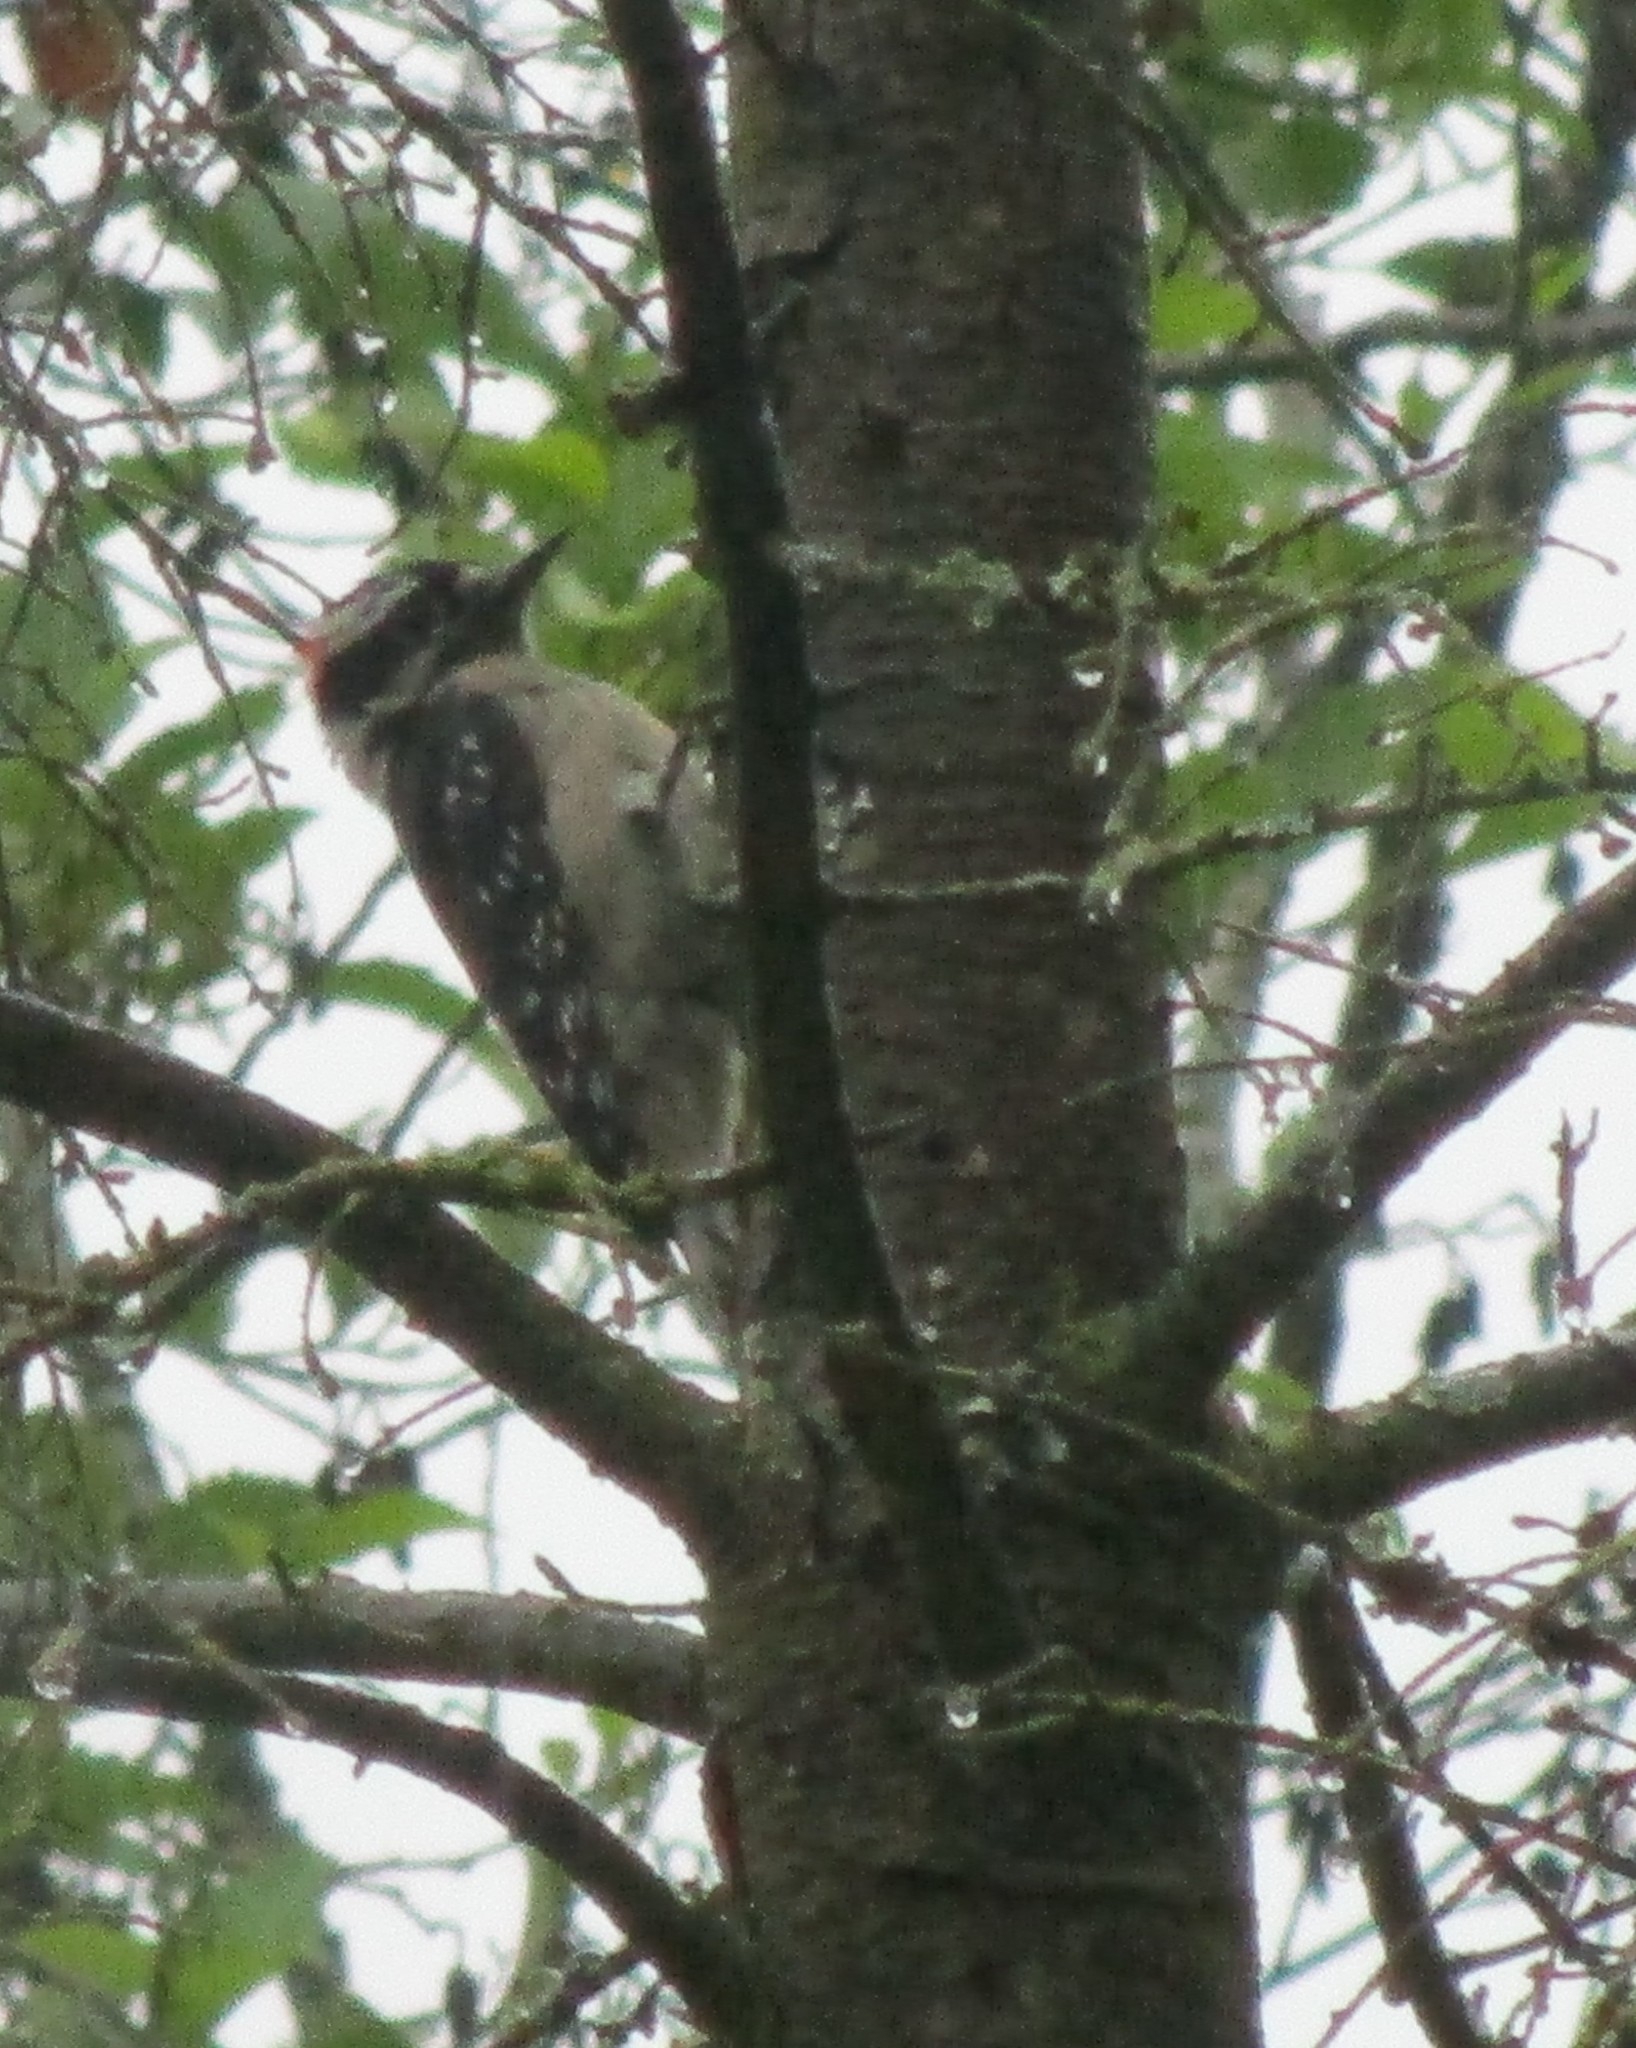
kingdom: Animalia
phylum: Chordata
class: Aves
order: Piciformes
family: Picidae
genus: Dryobates
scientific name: Dryobates pubescens
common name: Downy woodpecker
